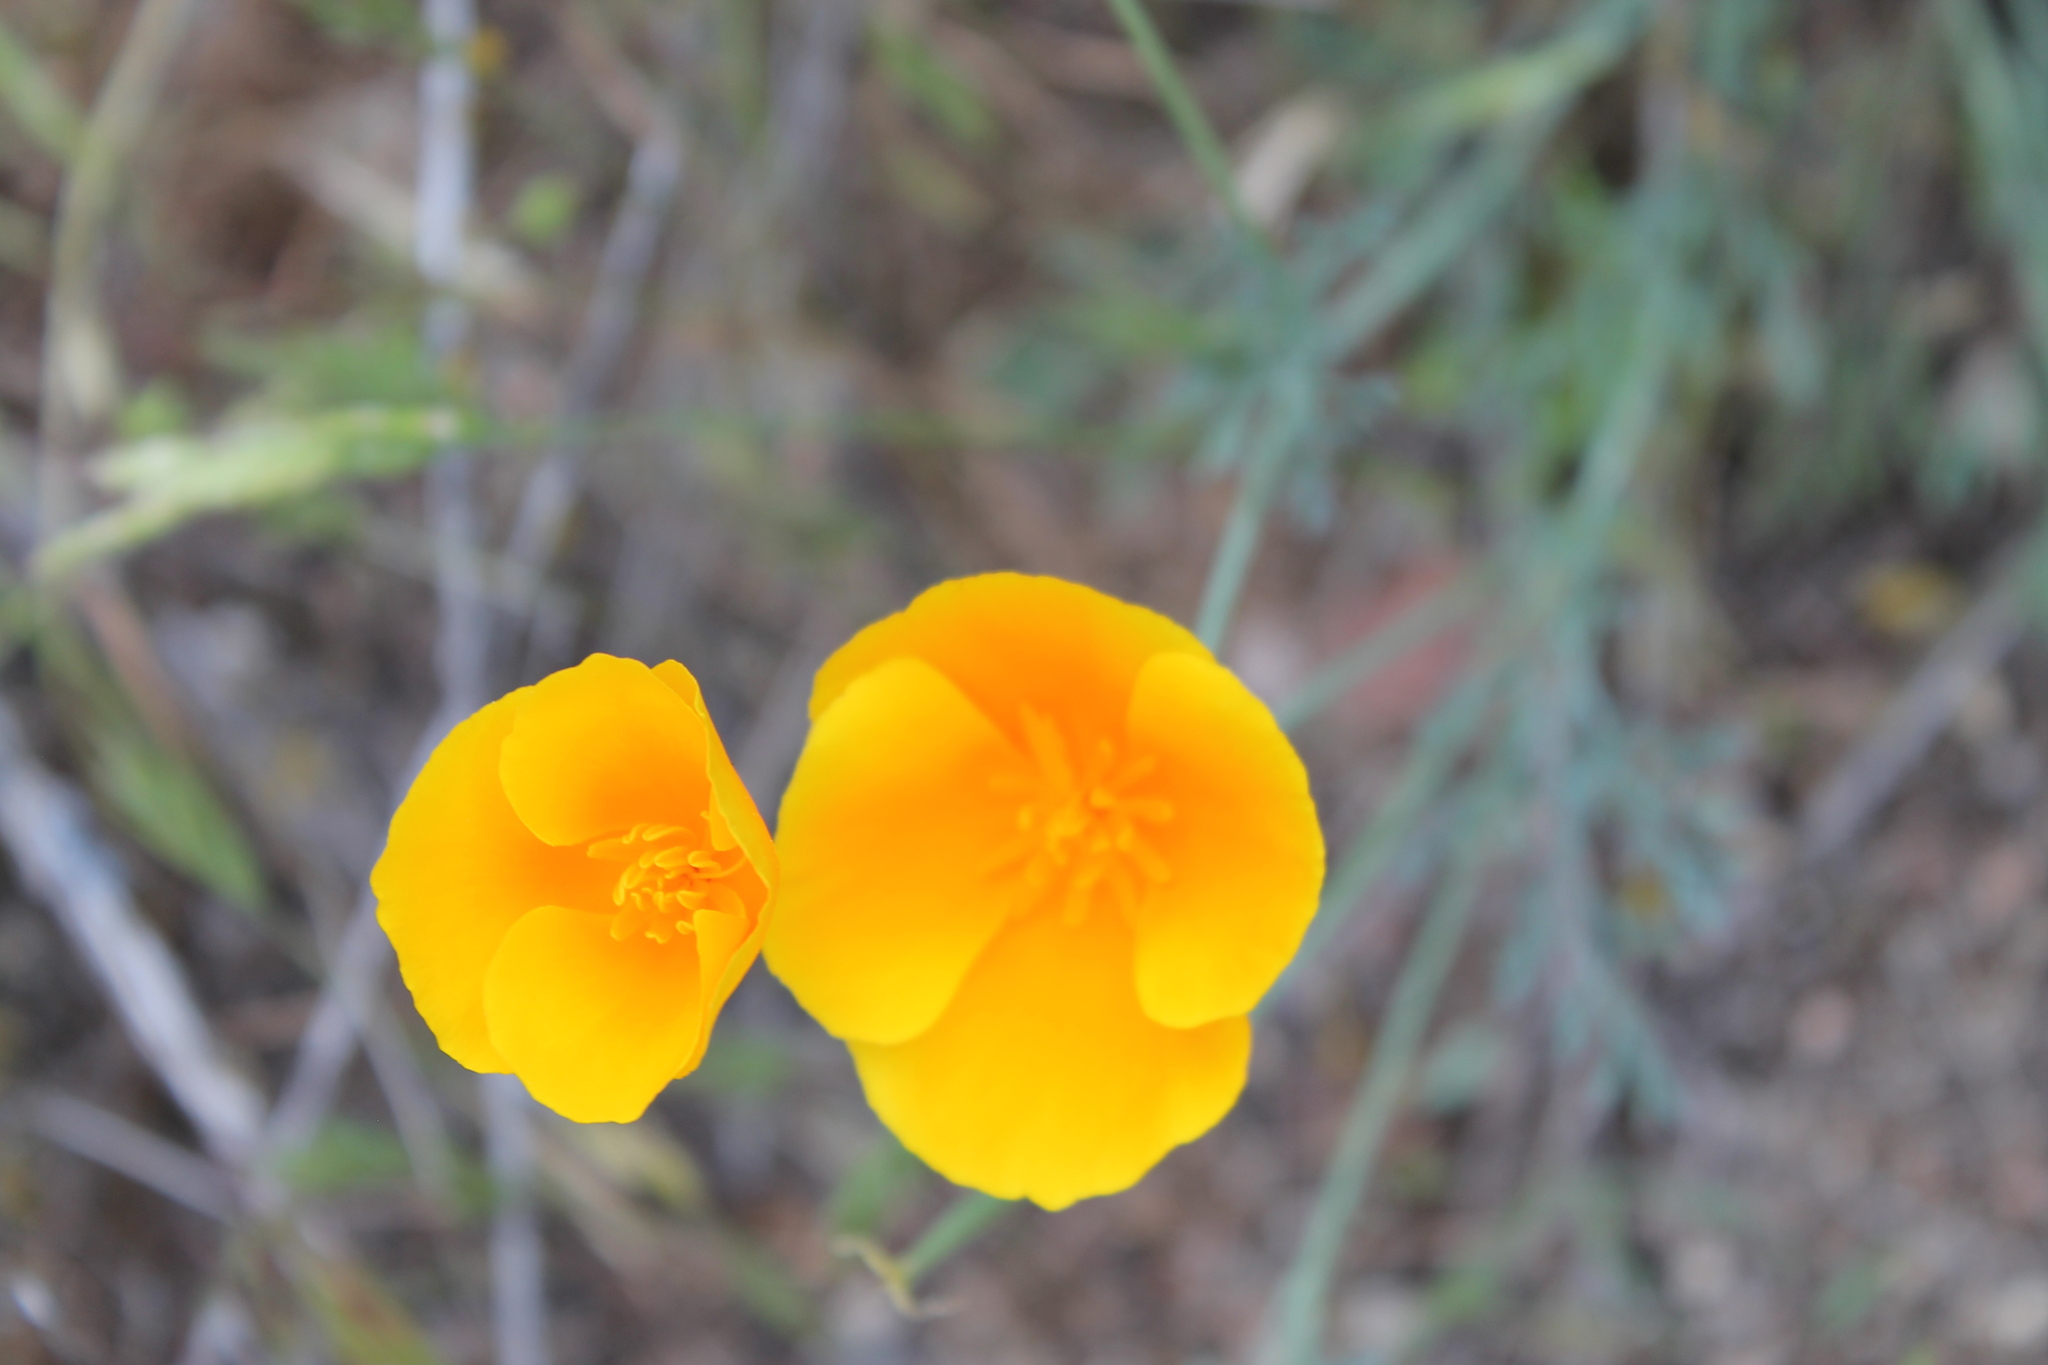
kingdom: Plantae
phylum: Tracheophyta
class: Magnoliopsida
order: Ranunculales
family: Papaveraceae
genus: Eschscholzia
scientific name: Eschscholzia californica
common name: California poppy
